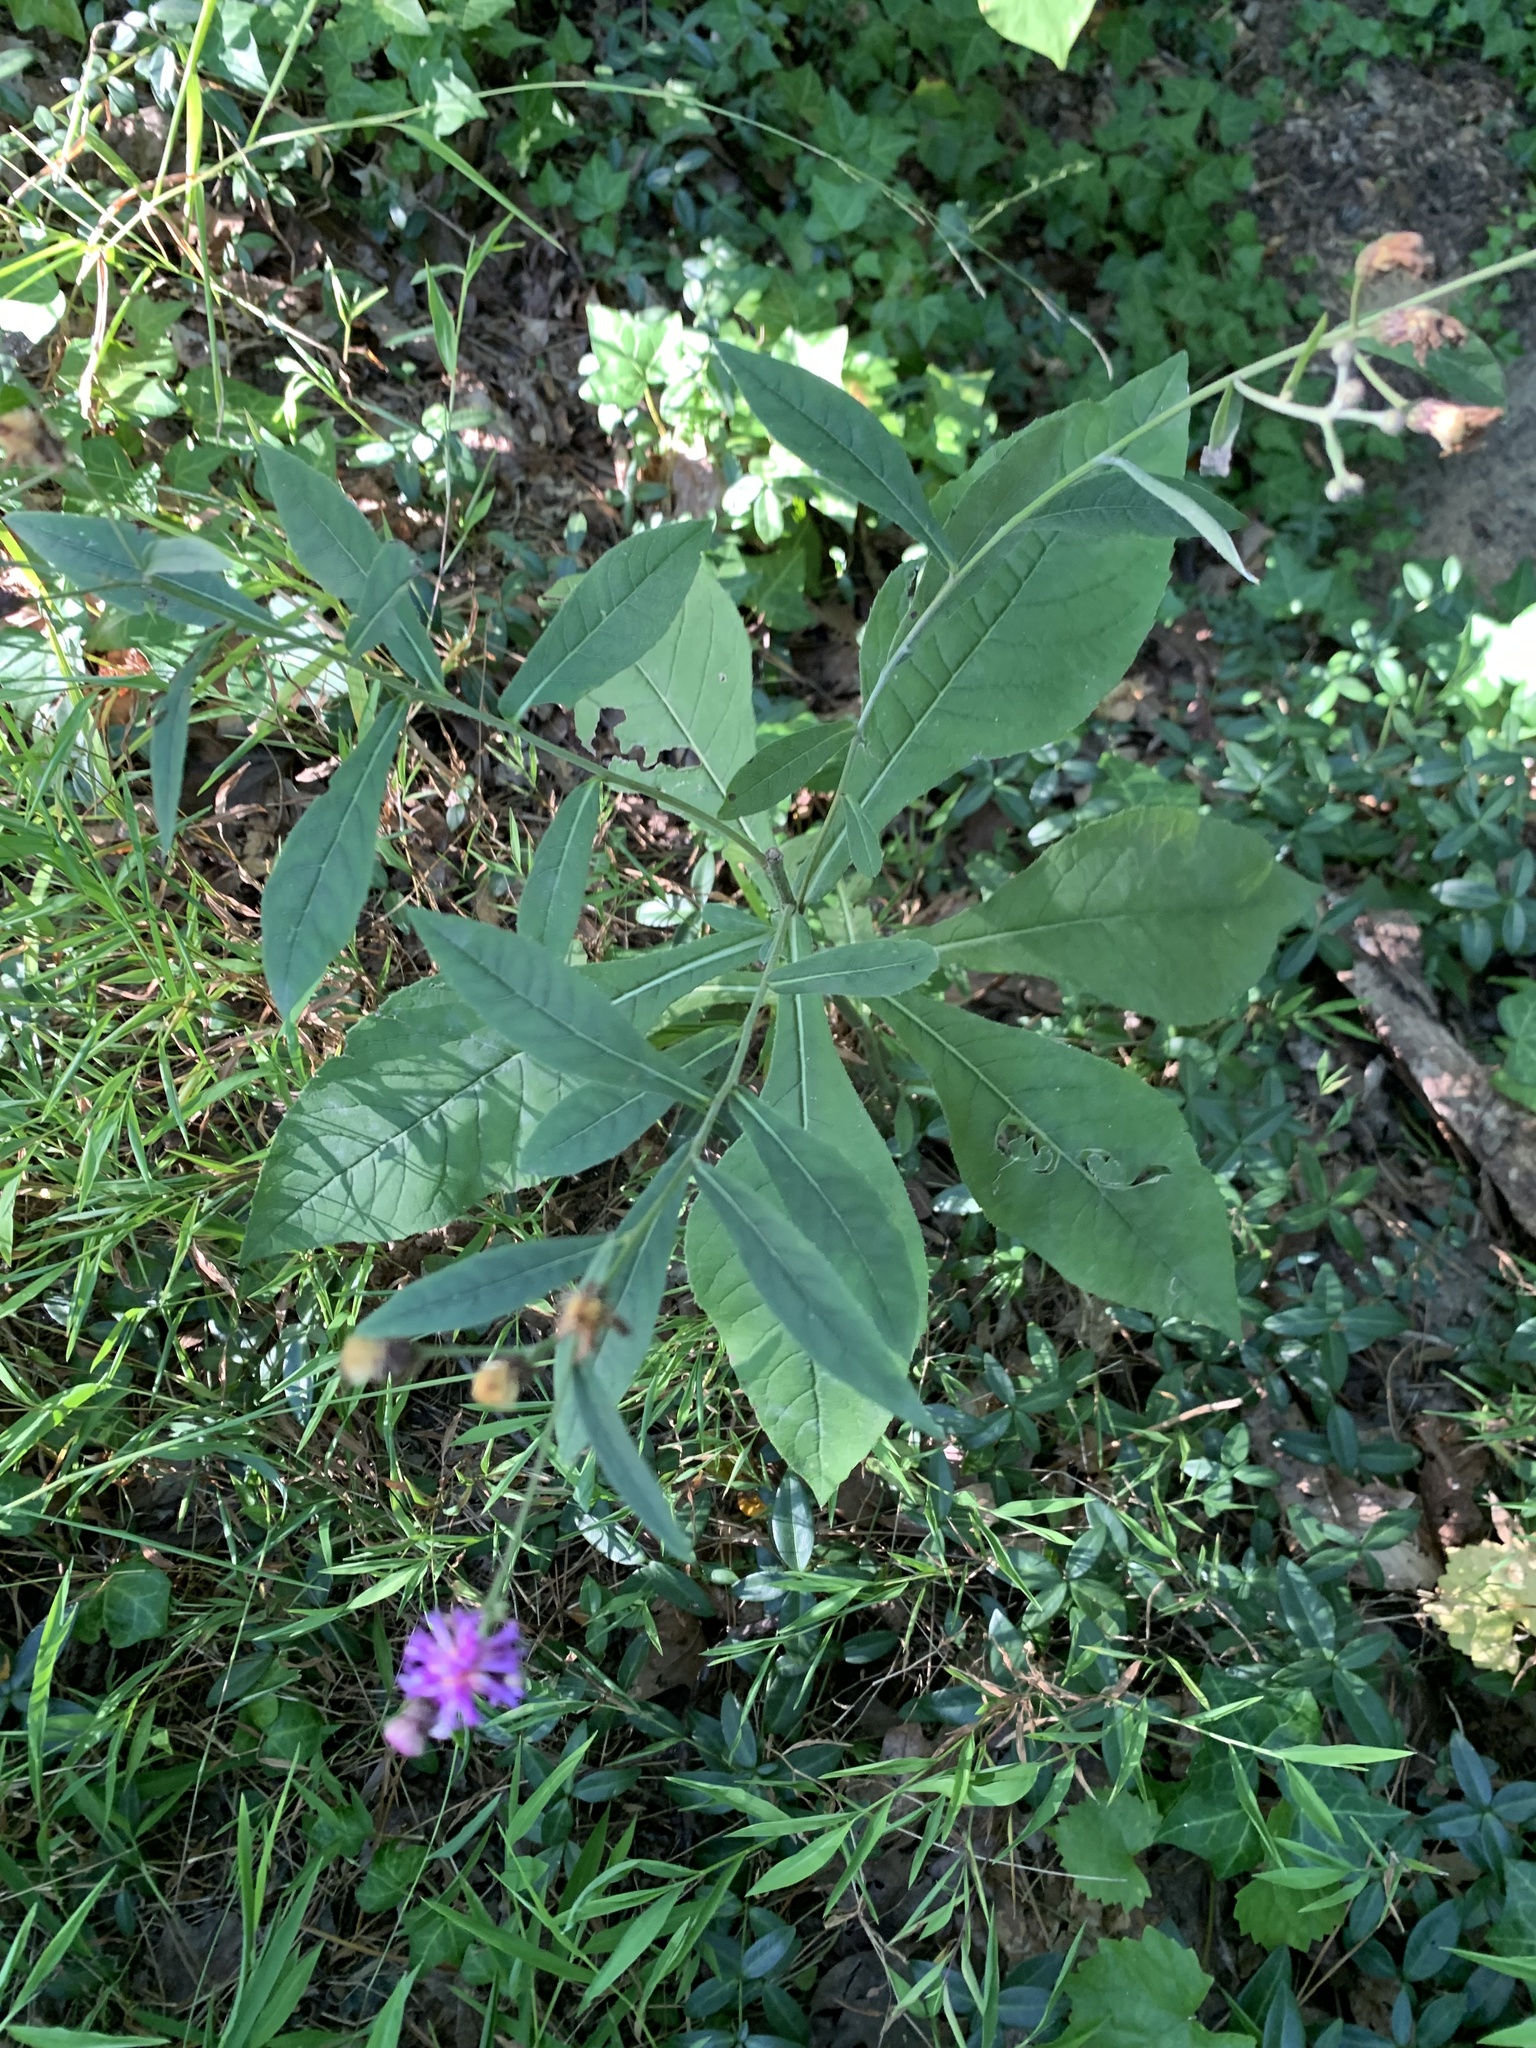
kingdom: Plantae
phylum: Tracheophyta
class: Magnoliopsida
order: Asterales
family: Asteraceae
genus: Vernonia
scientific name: Vernonia glauca
